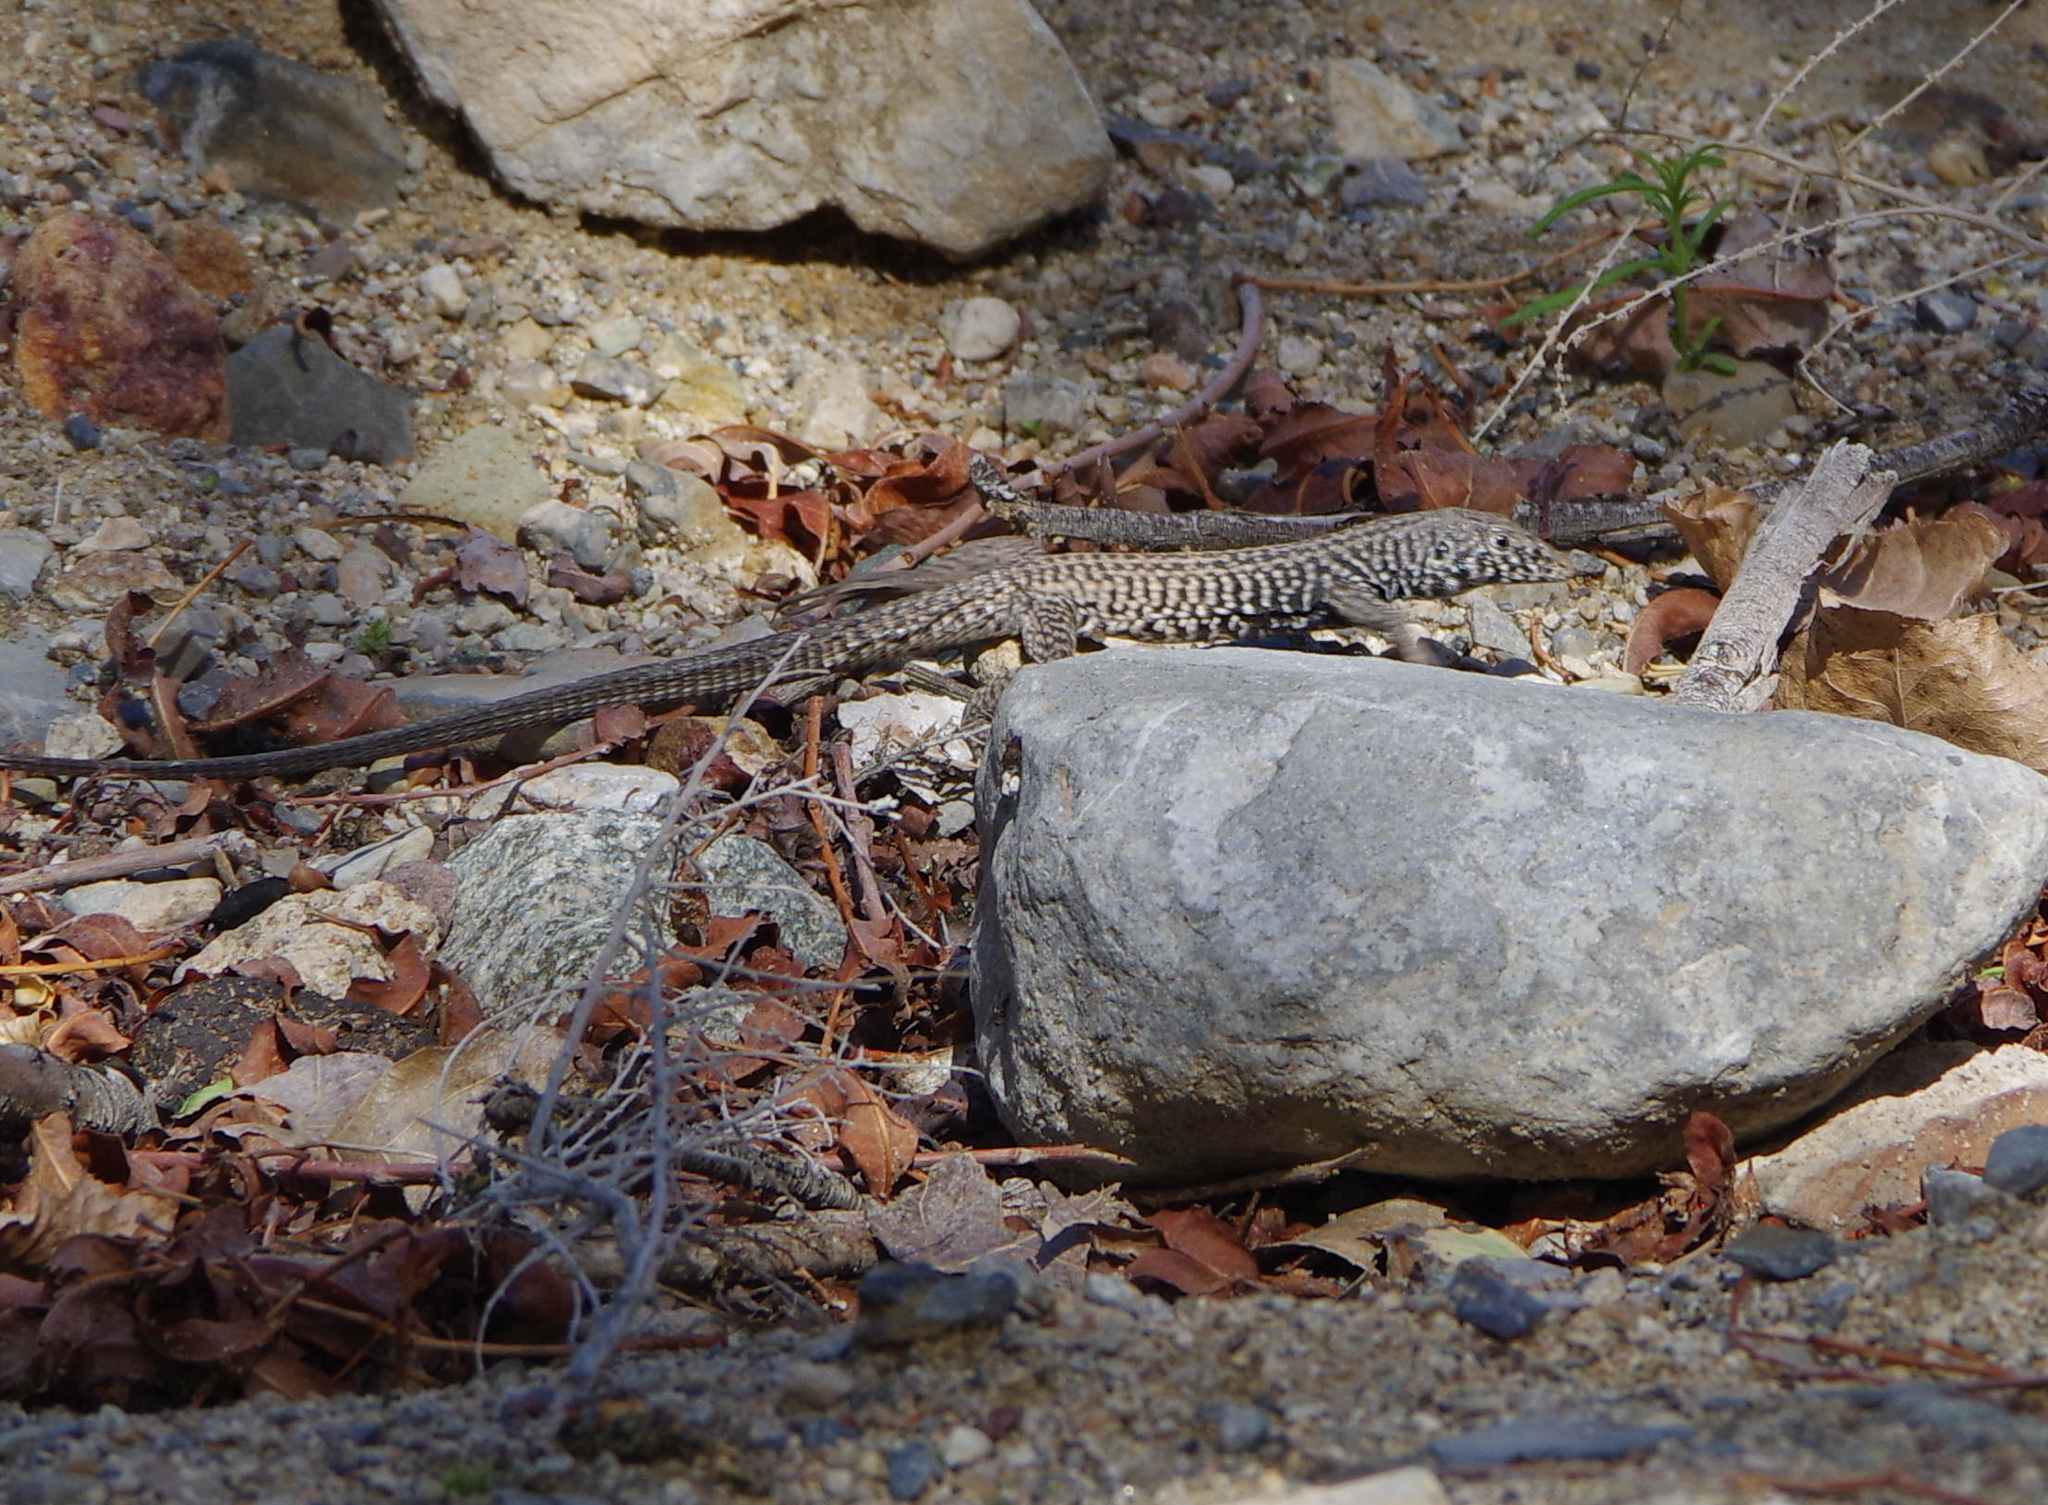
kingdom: Animalia
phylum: Chordata
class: Squamata
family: Teiidae
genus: Aspidoscelis
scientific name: Aspidoscelis tigris
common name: Tiger whiptail
